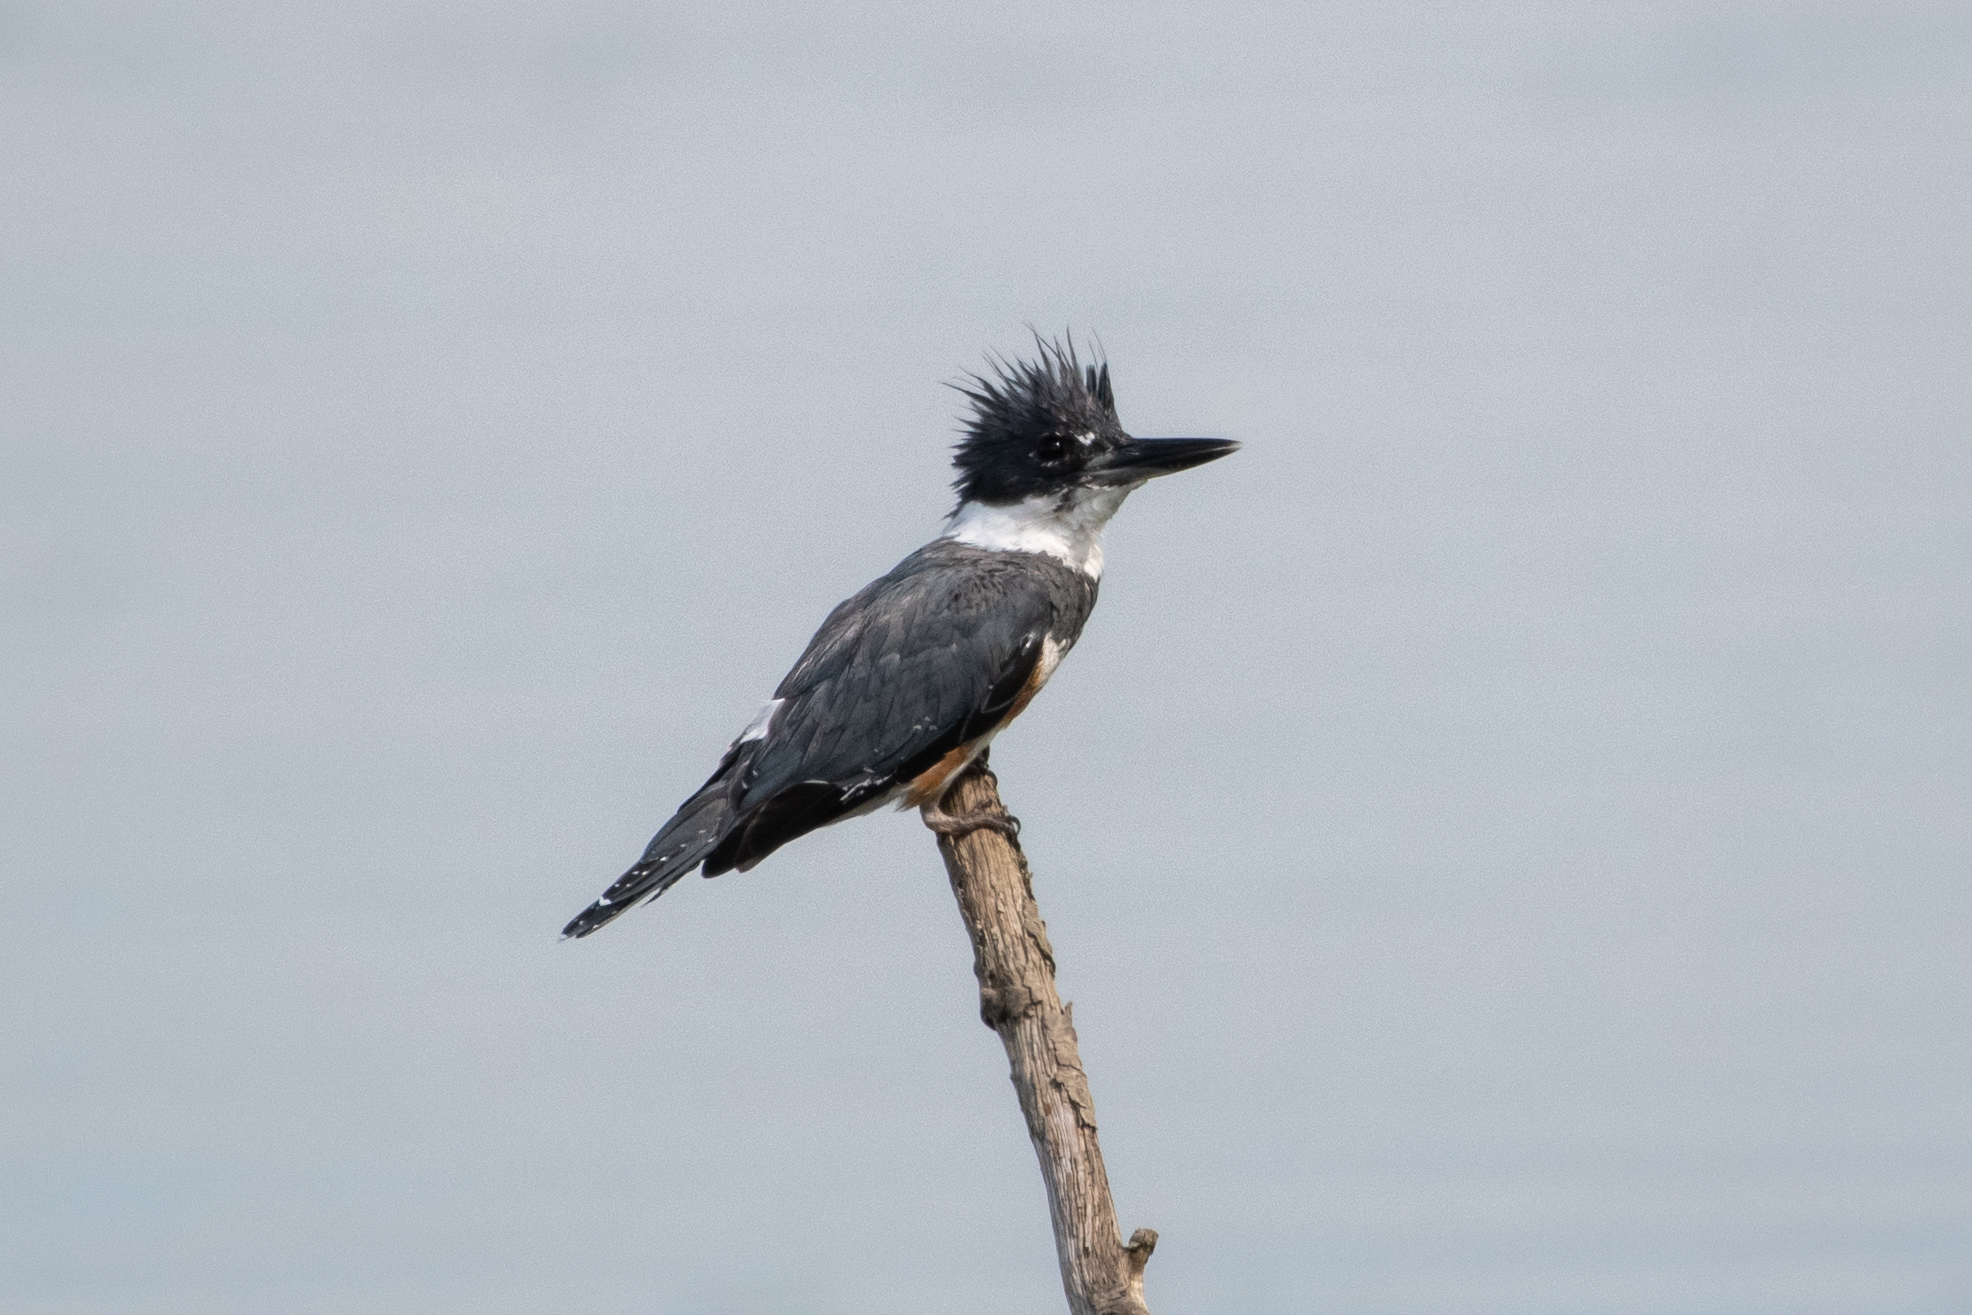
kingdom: Animalia
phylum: Chordata
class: Aves
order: Coraciiformes
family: Alcedinidae
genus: Megaceryle
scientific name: Megaceryle alcyon
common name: Belted kingfisher
